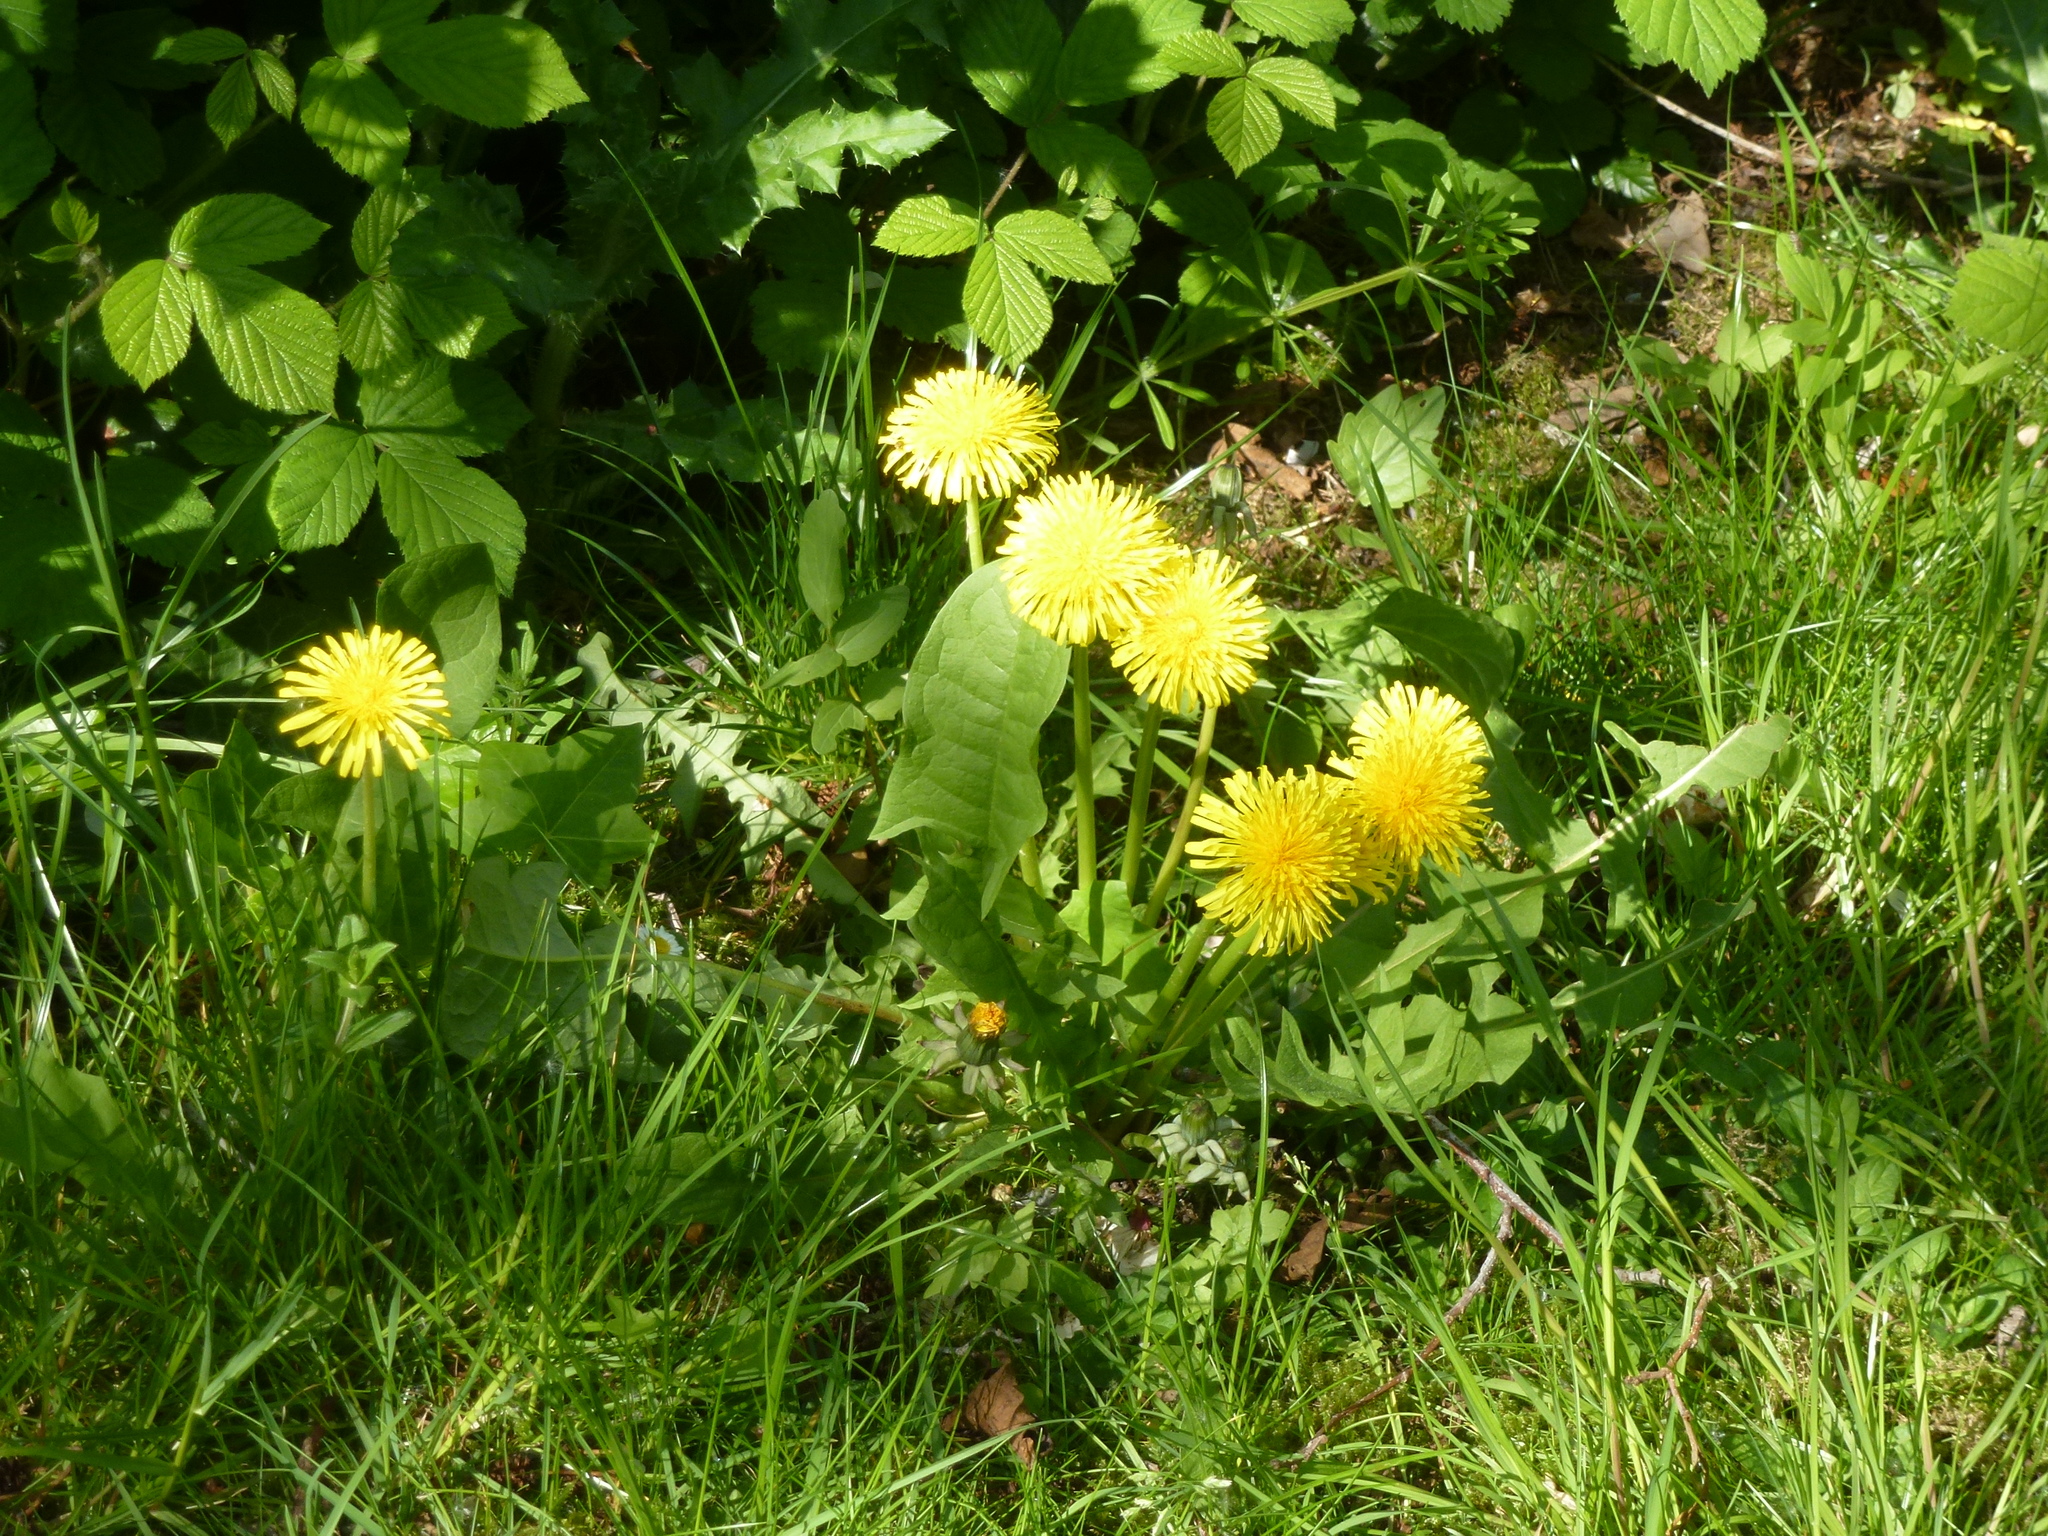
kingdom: Plantae
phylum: Tracheophyta
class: Magnoliopsida
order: Asterales
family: Asteraceae
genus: Taraxacum
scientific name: Taraxacum officinale
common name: Common dandelion
